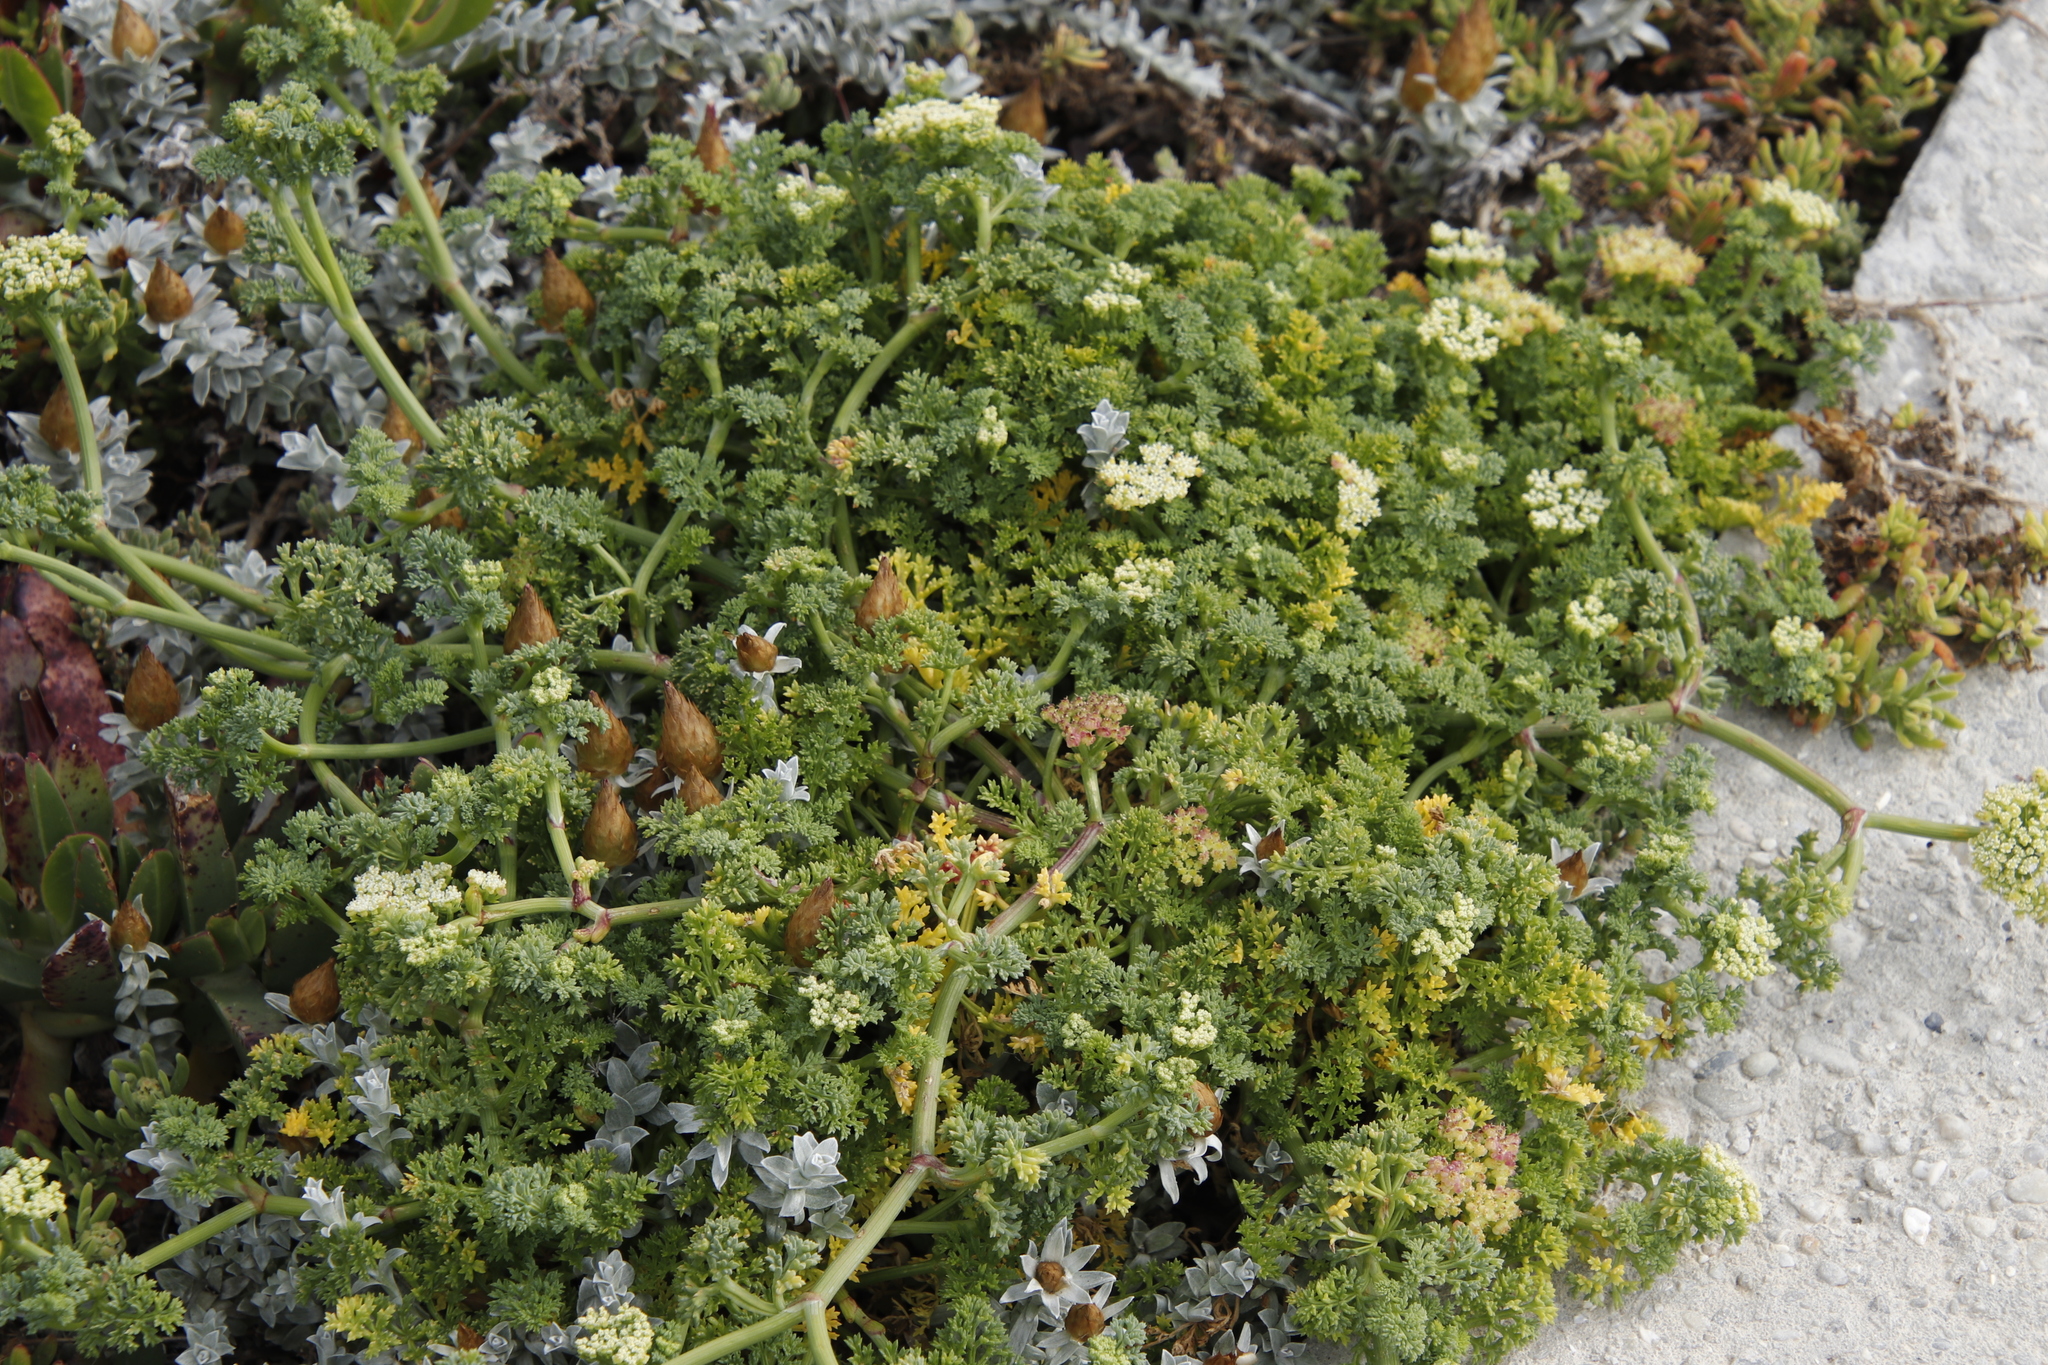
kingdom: Plantae
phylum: Tracheophyta
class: Magnoliopsida
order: Apiales
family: Apiaceae
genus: Dasispermum
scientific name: Dasispermum suffruticosum
